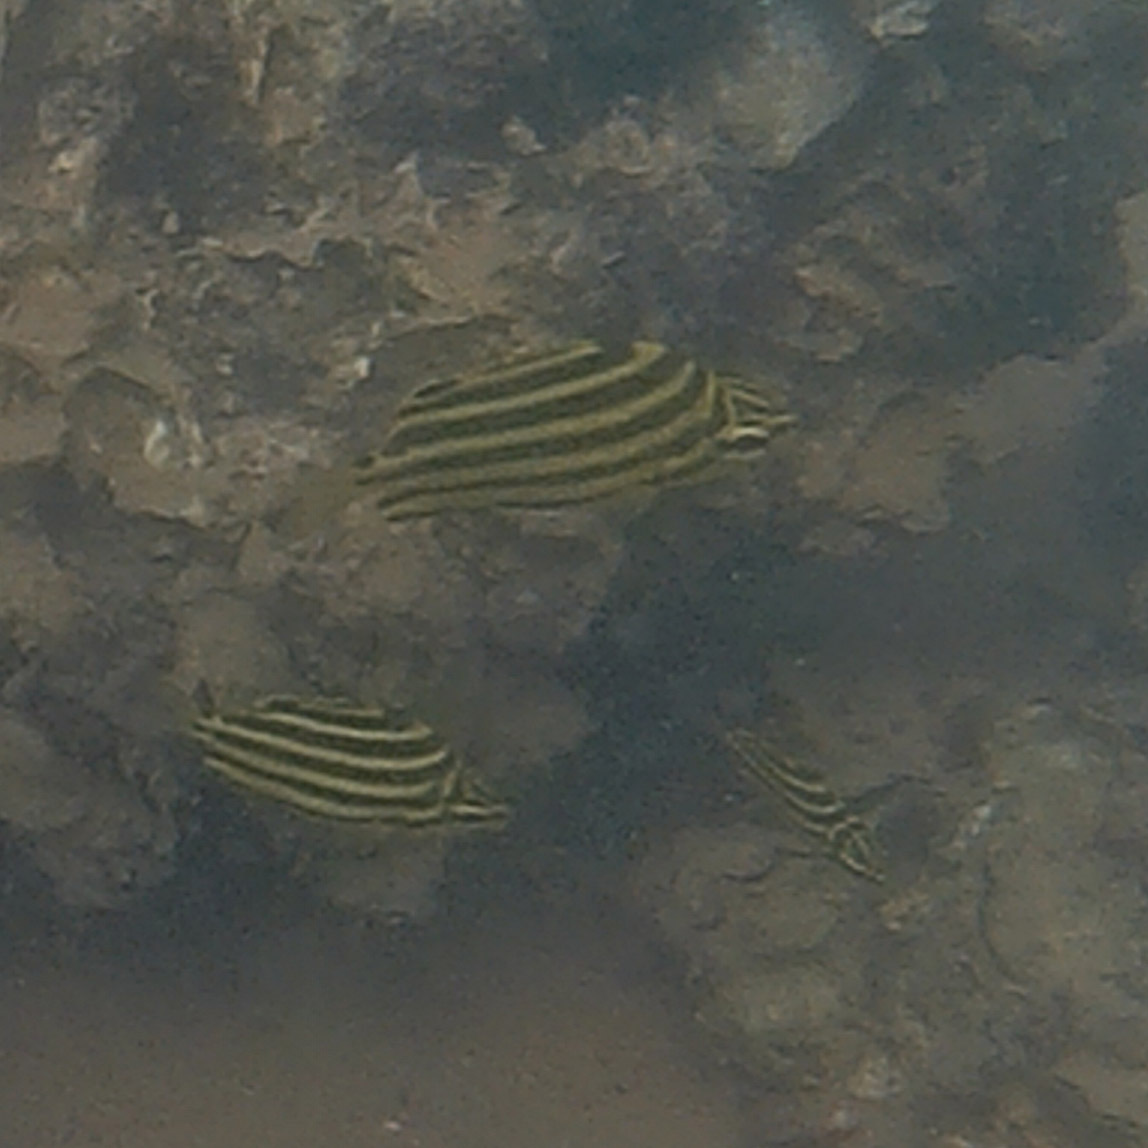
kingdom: Animalia
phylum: Chordata
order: Perciformes
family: Kyphosidae
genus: Microcanthus
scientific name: Microcanthus joyceae
